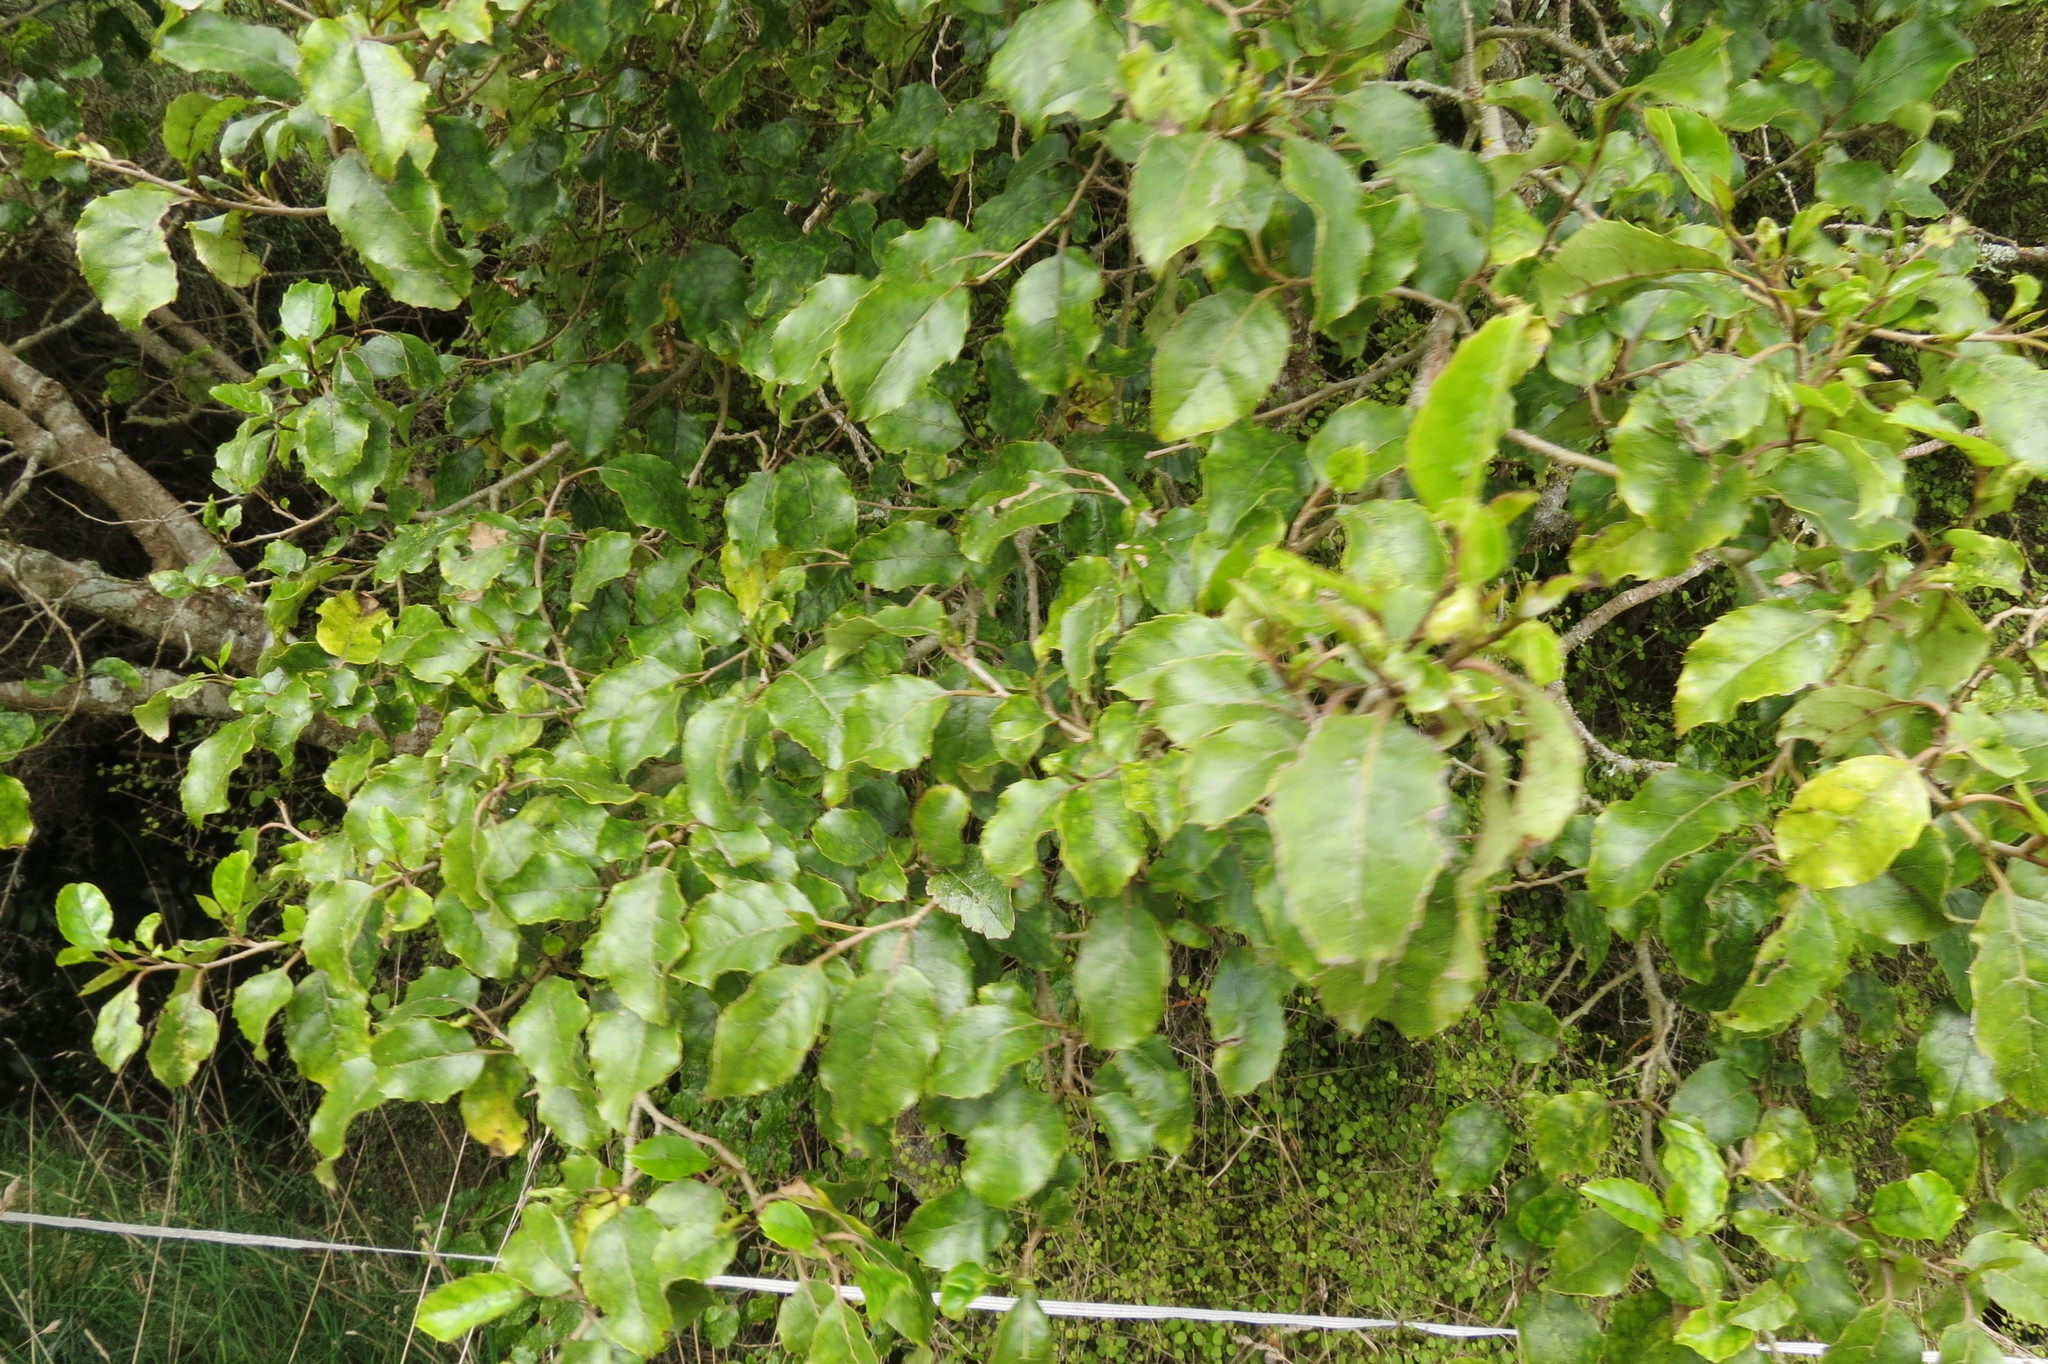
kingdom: Plantae
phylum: Tracheophyta
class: Magnoliopsida
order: Asterales
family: Rousseaceae
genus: Carpodetus
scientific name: Carpodetus serratus
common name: White mapau
